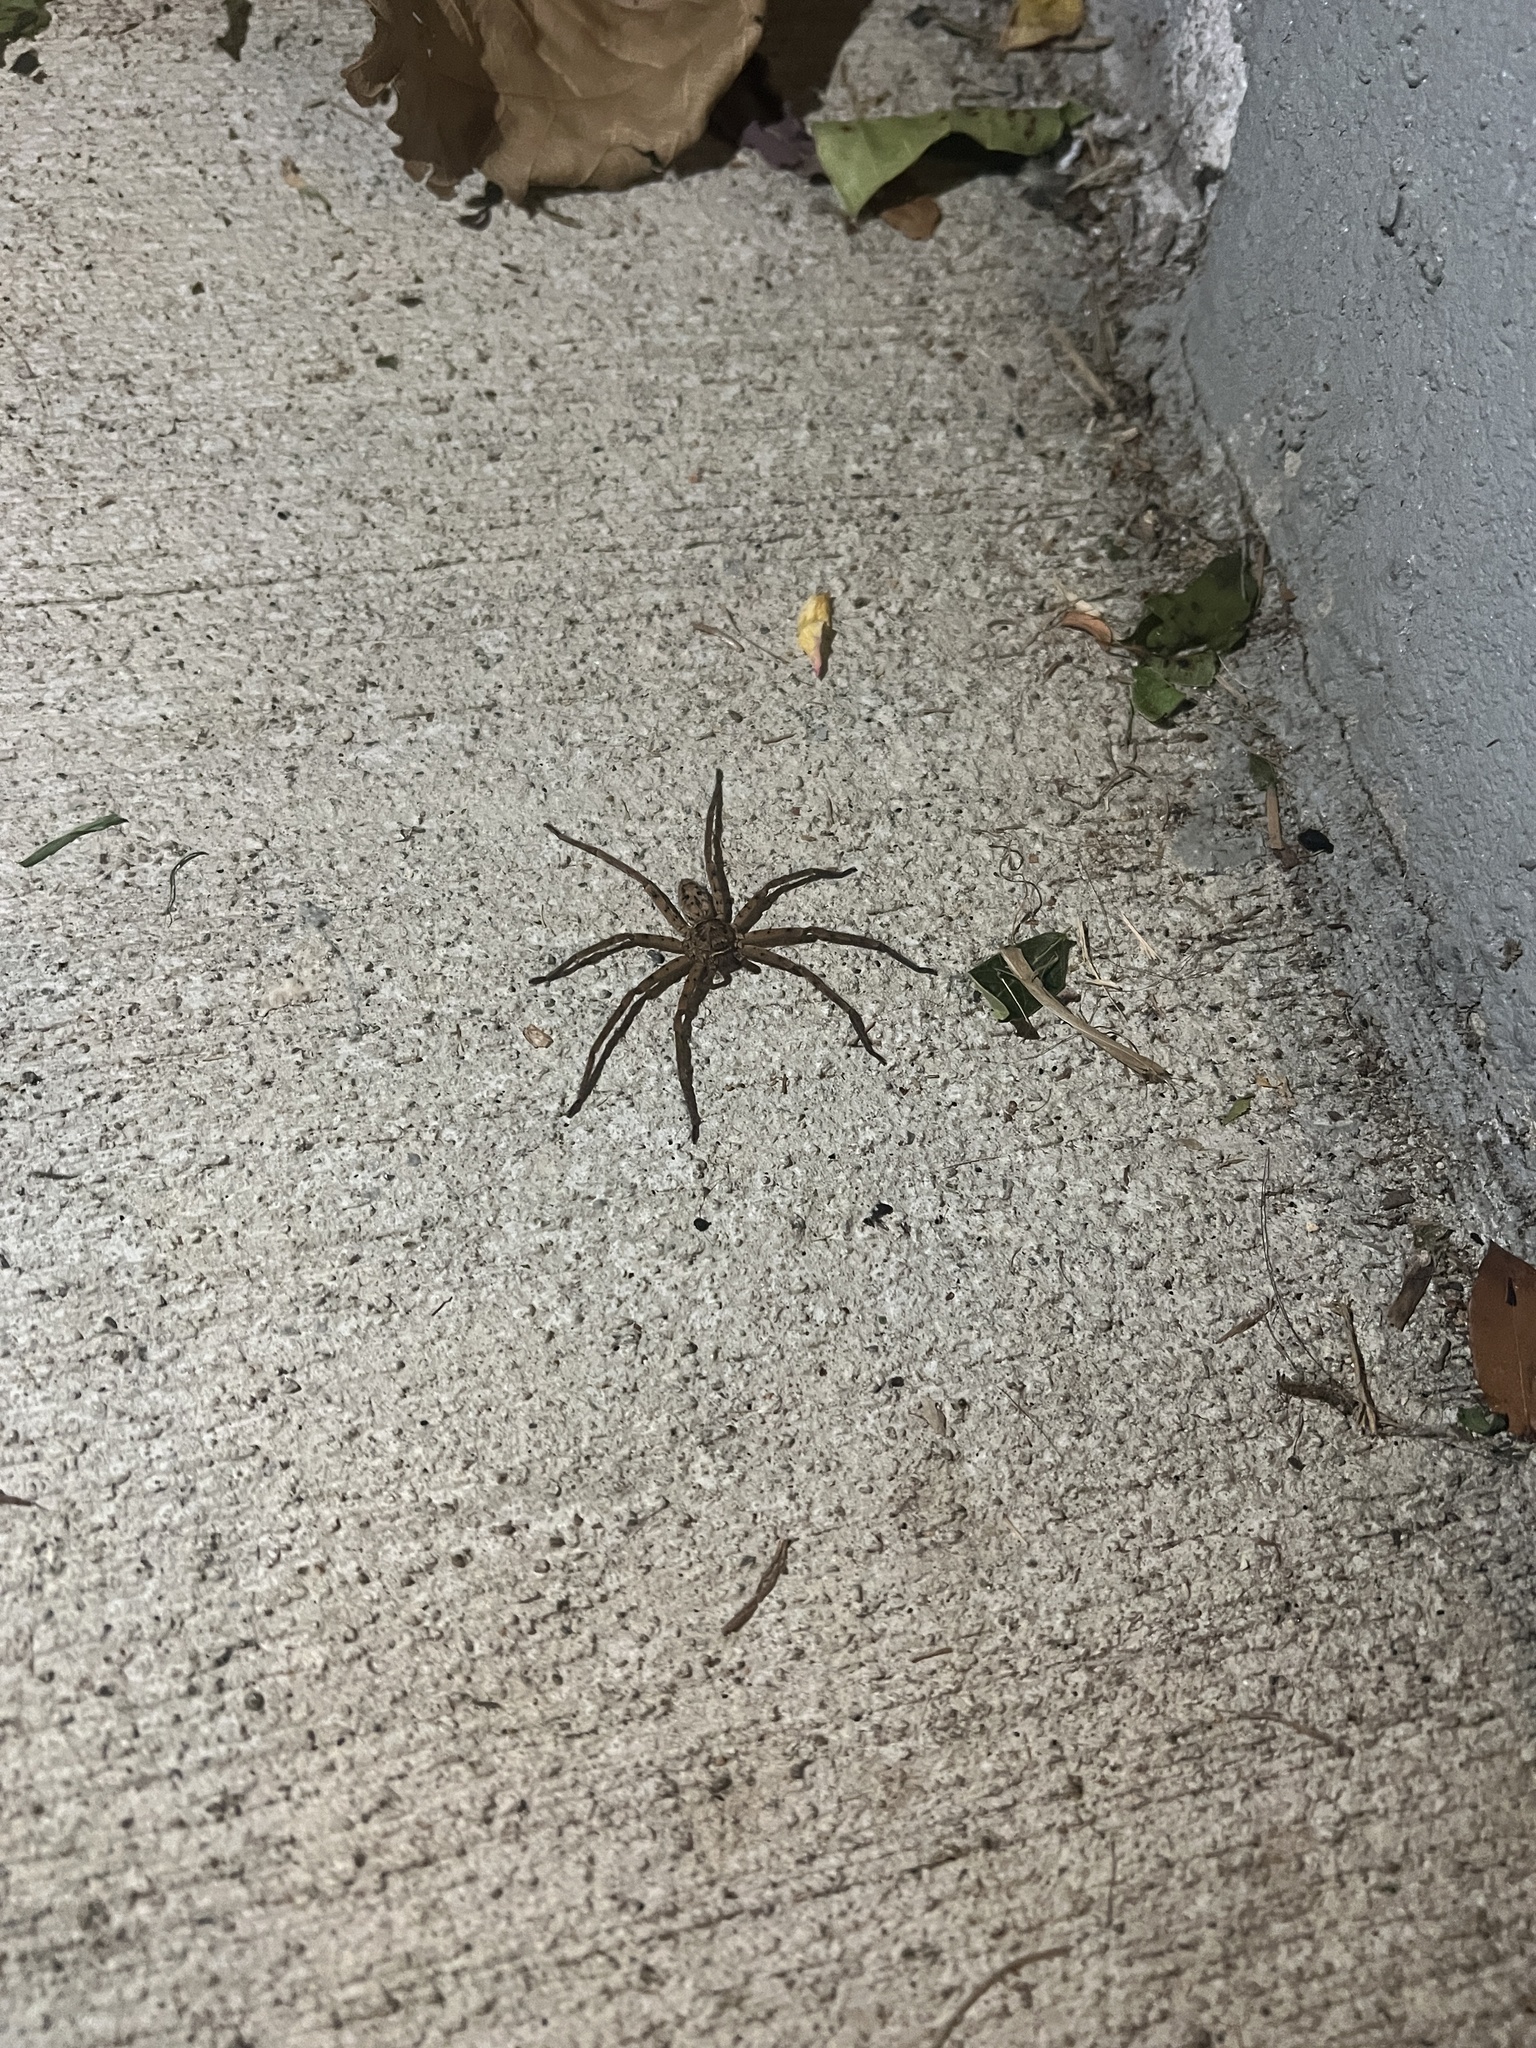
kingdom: Animalia
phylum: Arthropoda
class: Arachnida
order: Araneae
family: Sparassidae
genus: Heteropoda
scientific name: Heteropoda venatoria
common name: Huntsman spider
